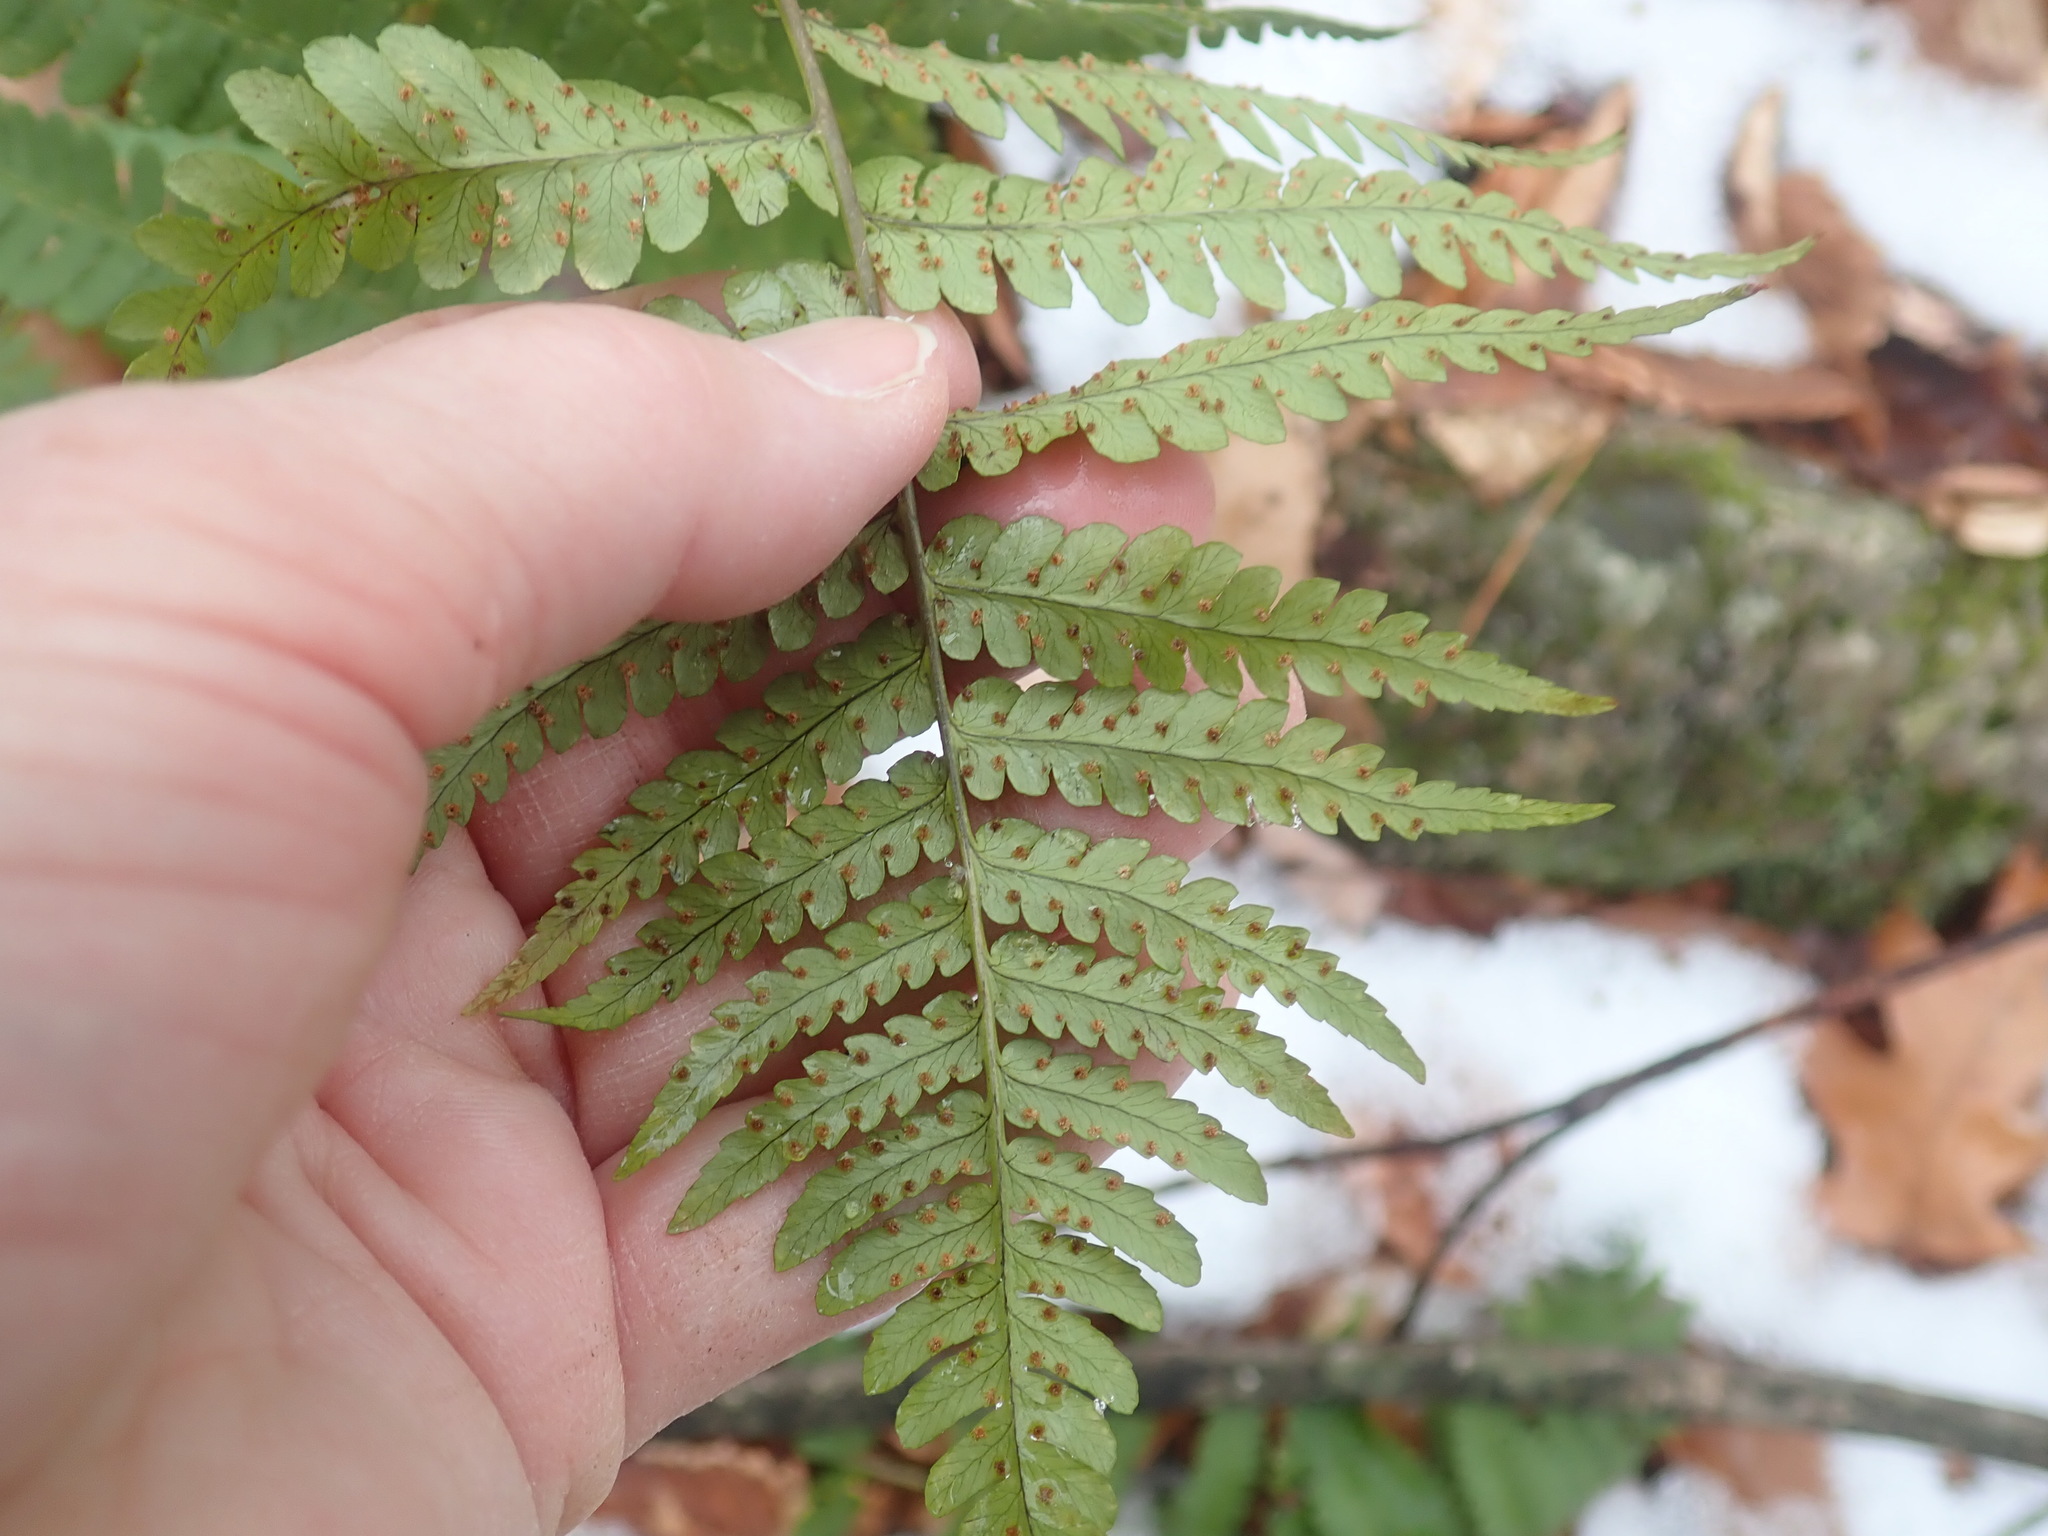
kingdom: Plantae
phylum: Tracheophyta
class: Polypodiopsida
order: Polypodiales
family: Dryopteridaceae
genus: Dryopteris
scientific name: Dryopteris marginalis
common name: Marginal wood fern
